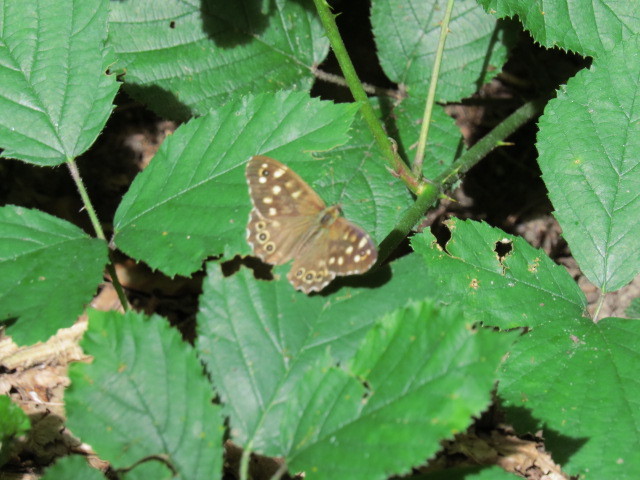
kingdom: Animalia
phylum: Arthropoda
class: Insecta
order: Lepidoptera
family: Nymphalidae
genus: Pararge
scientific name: Pararge aegeria
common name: Speckled wood
